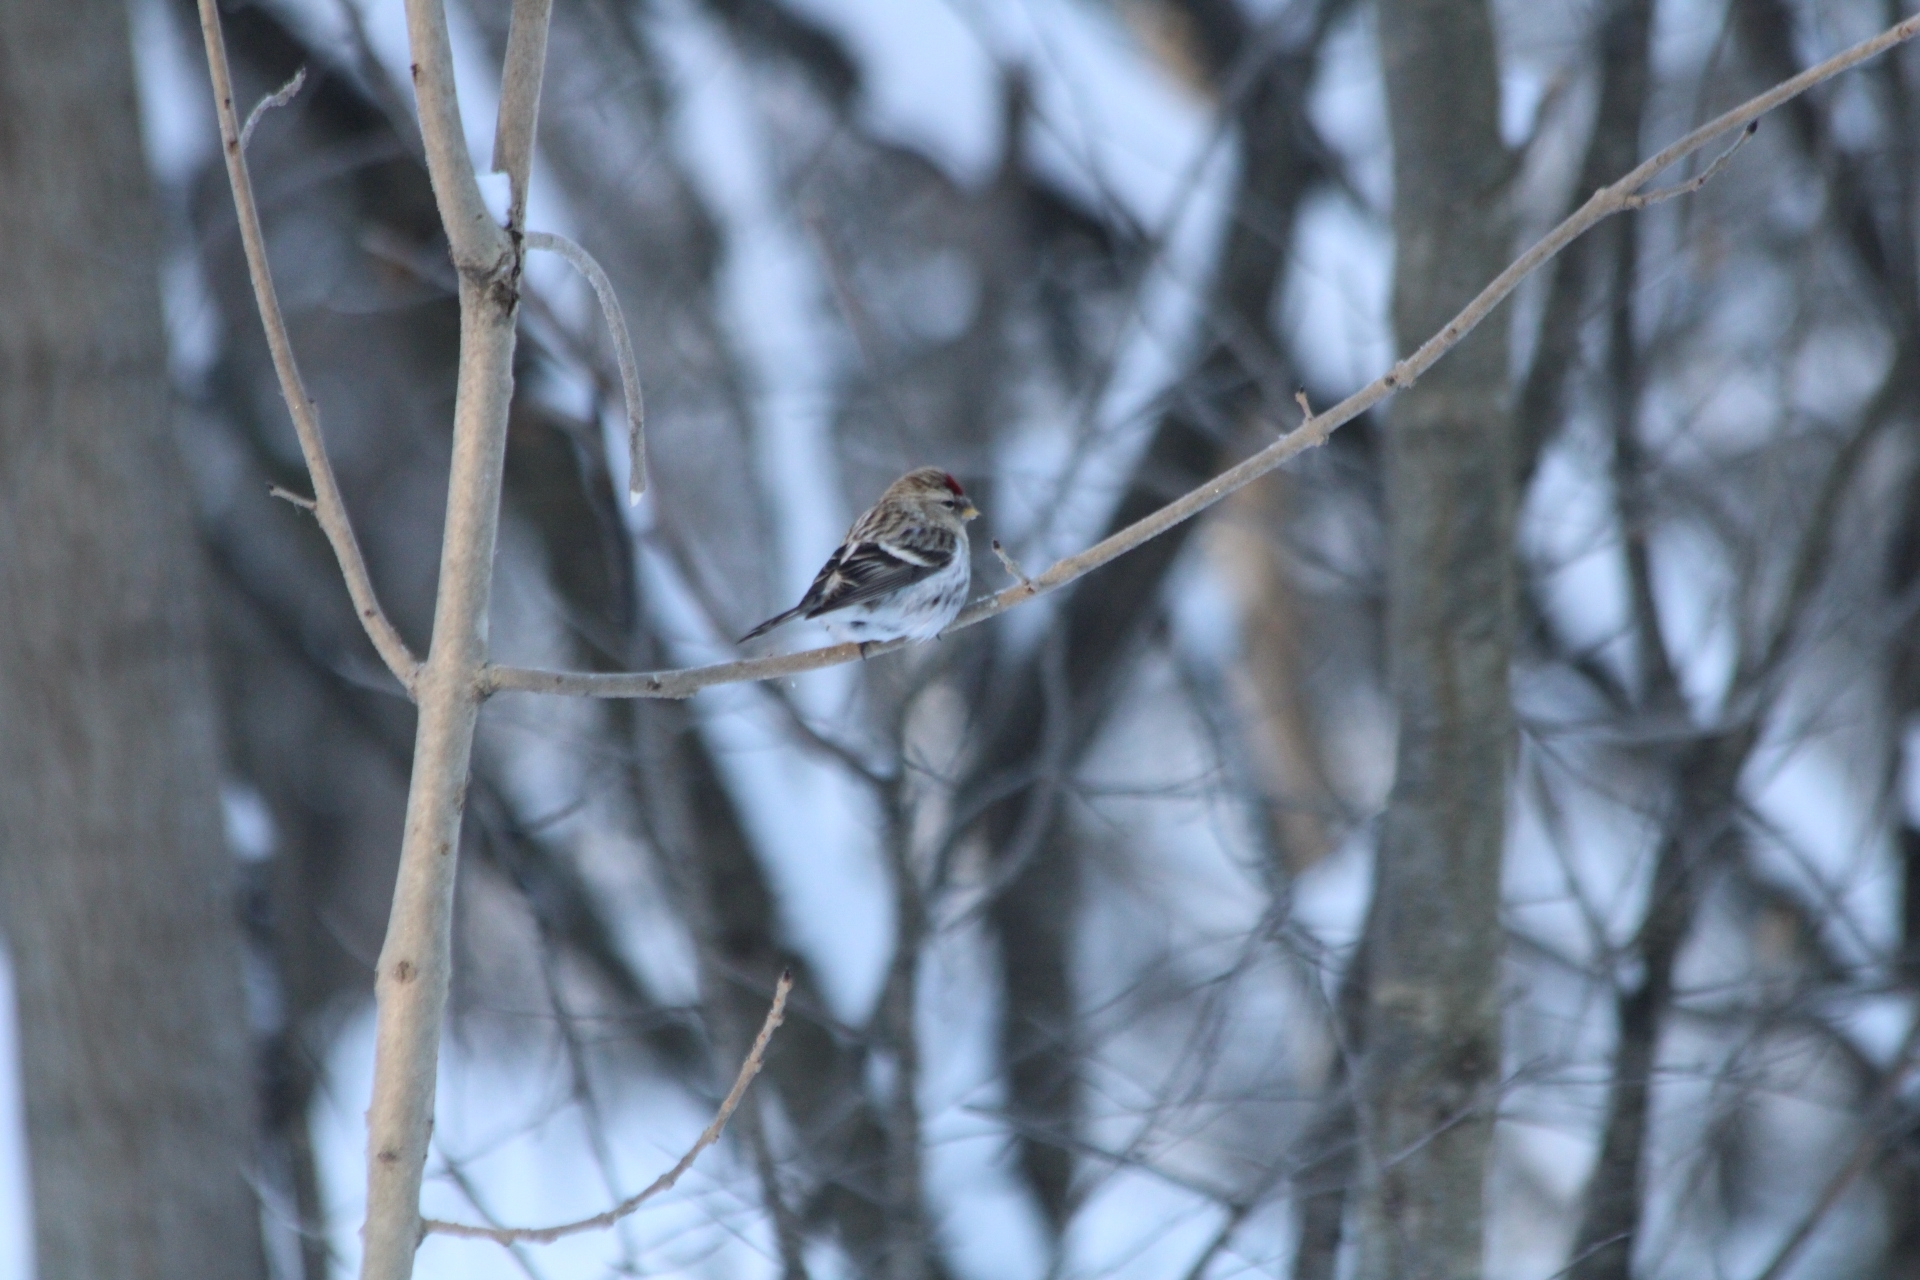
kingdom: Animalia
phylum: Chordata
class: Aves
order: Passeriformes
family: Fringillidae
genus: Acanthis
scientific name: Acanthis flammea
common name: Common redpoll
